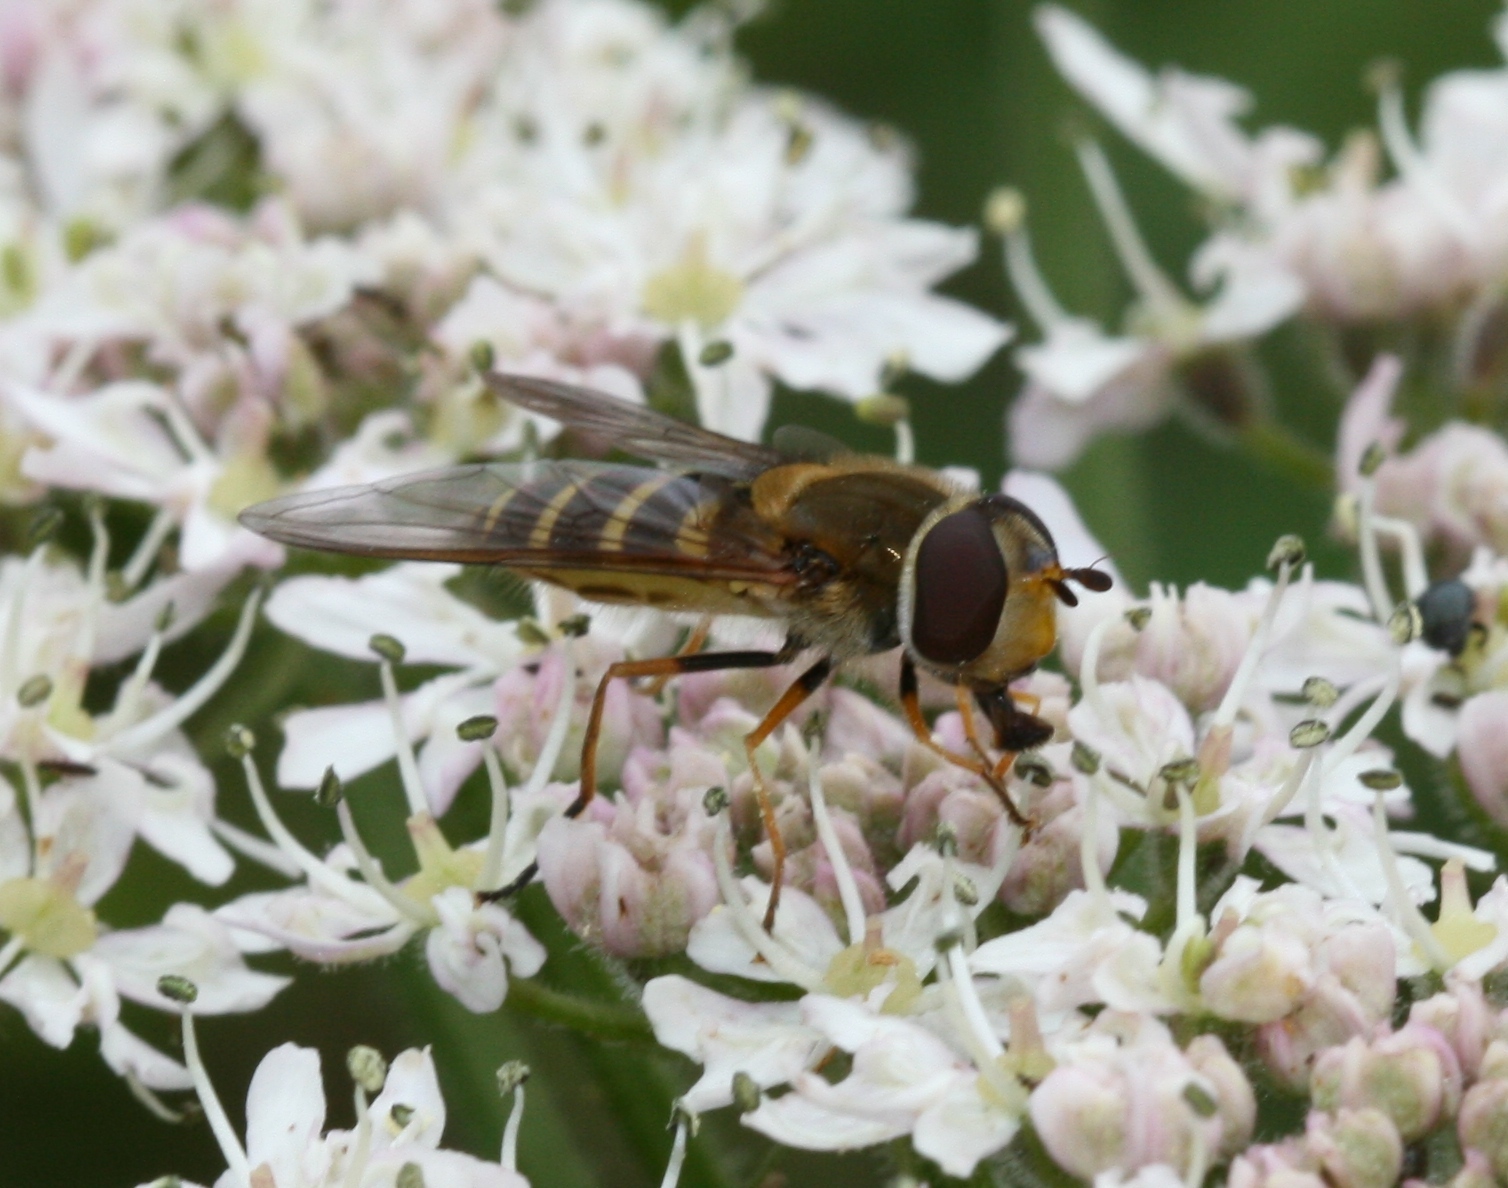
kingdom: Animalia
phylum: Arthropoda
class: Insecta
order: Diptera
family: Syrphidae
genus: Syrphus
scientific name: Syrphus
